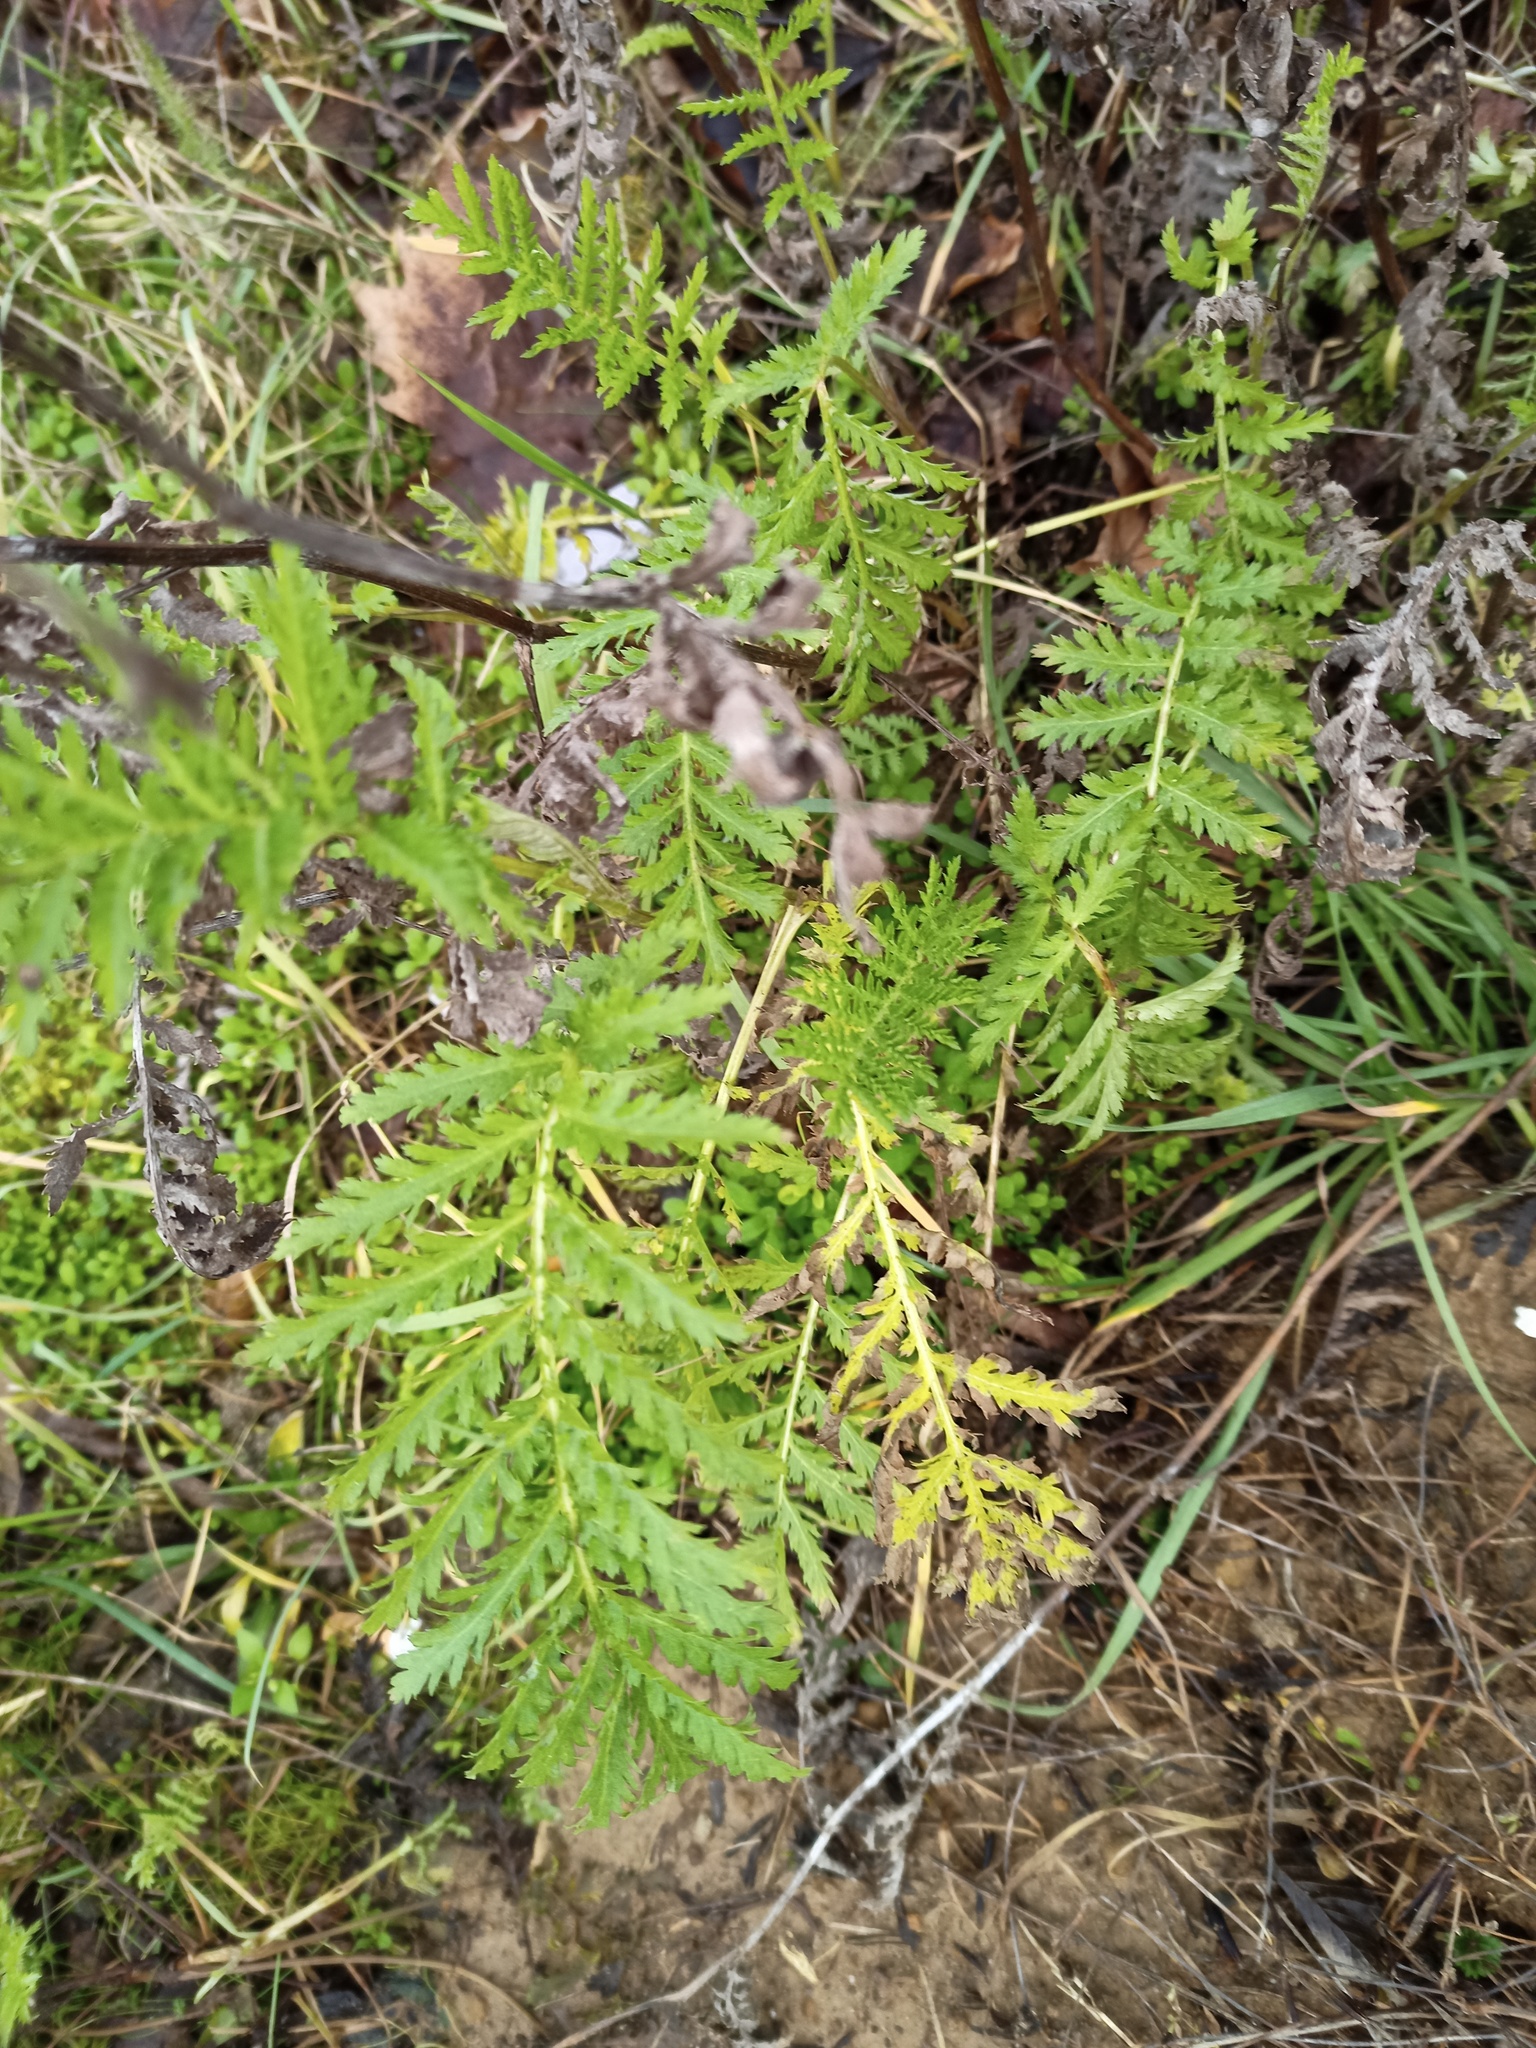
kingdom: Plantae
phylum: Tracheophyta
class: Magnoliopsida
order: Asterales
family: Asteraceae
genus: Tanacetum
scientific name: Tanacetum vulgare
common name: Common tansy
